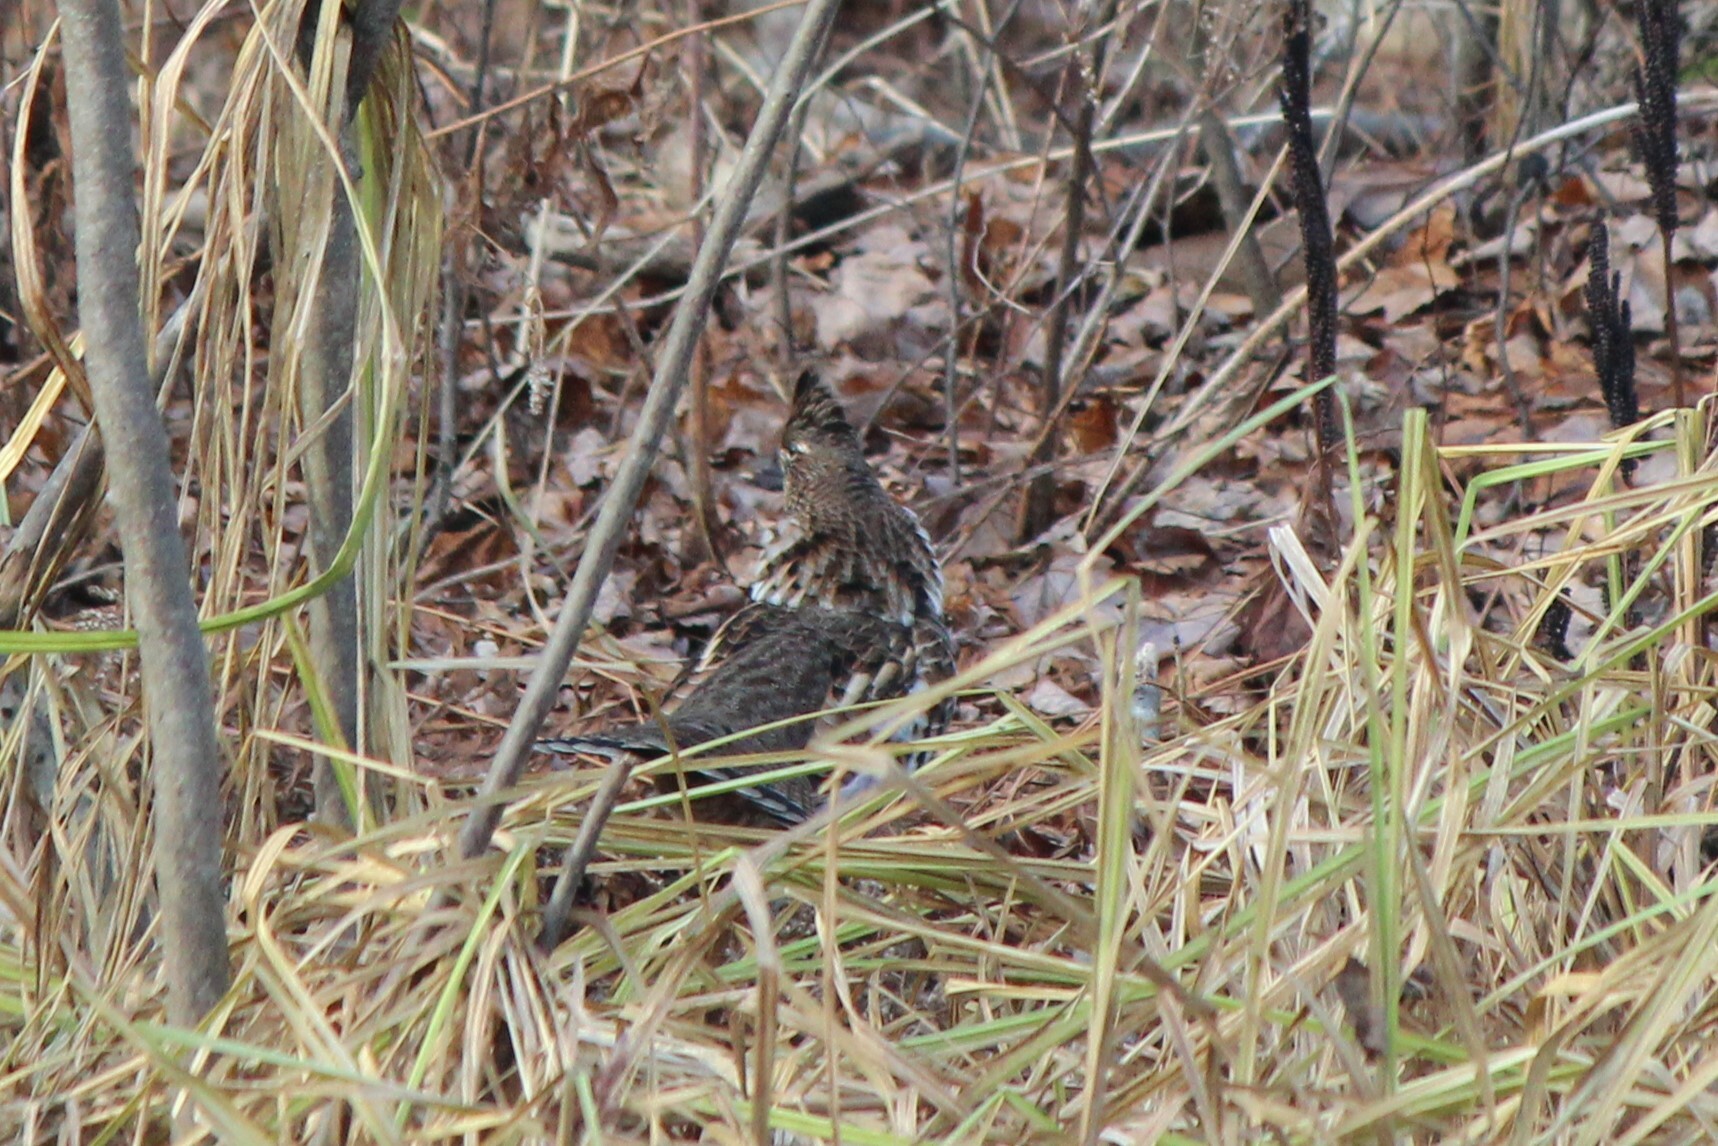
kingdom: Animalia
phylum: Chordata
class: Aves
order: Galliformes
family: Phasianidae
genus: Bonasa
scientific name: Bonasa umbellus
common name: Ruffed grouse
